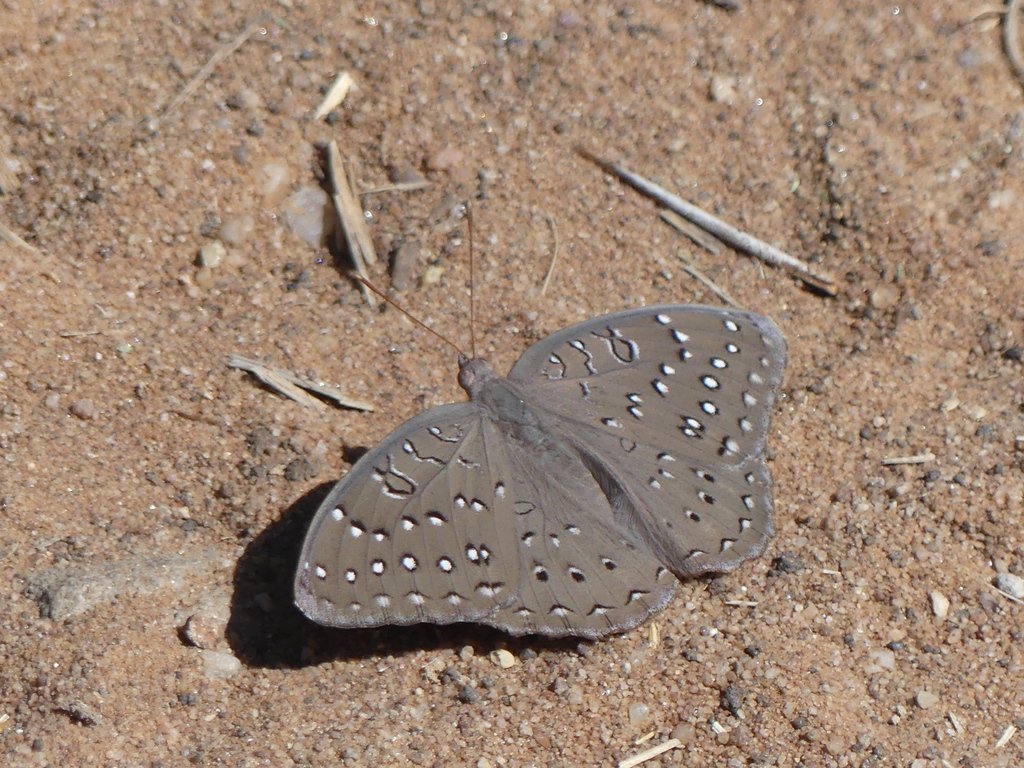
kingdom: Animalia
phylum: Arthropoda
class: Insecta
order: Lepidoptera
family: Nymphalidae
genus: Hamanumida
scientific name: Hamanumida daedalus
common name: Guinea-fowl butterfly
